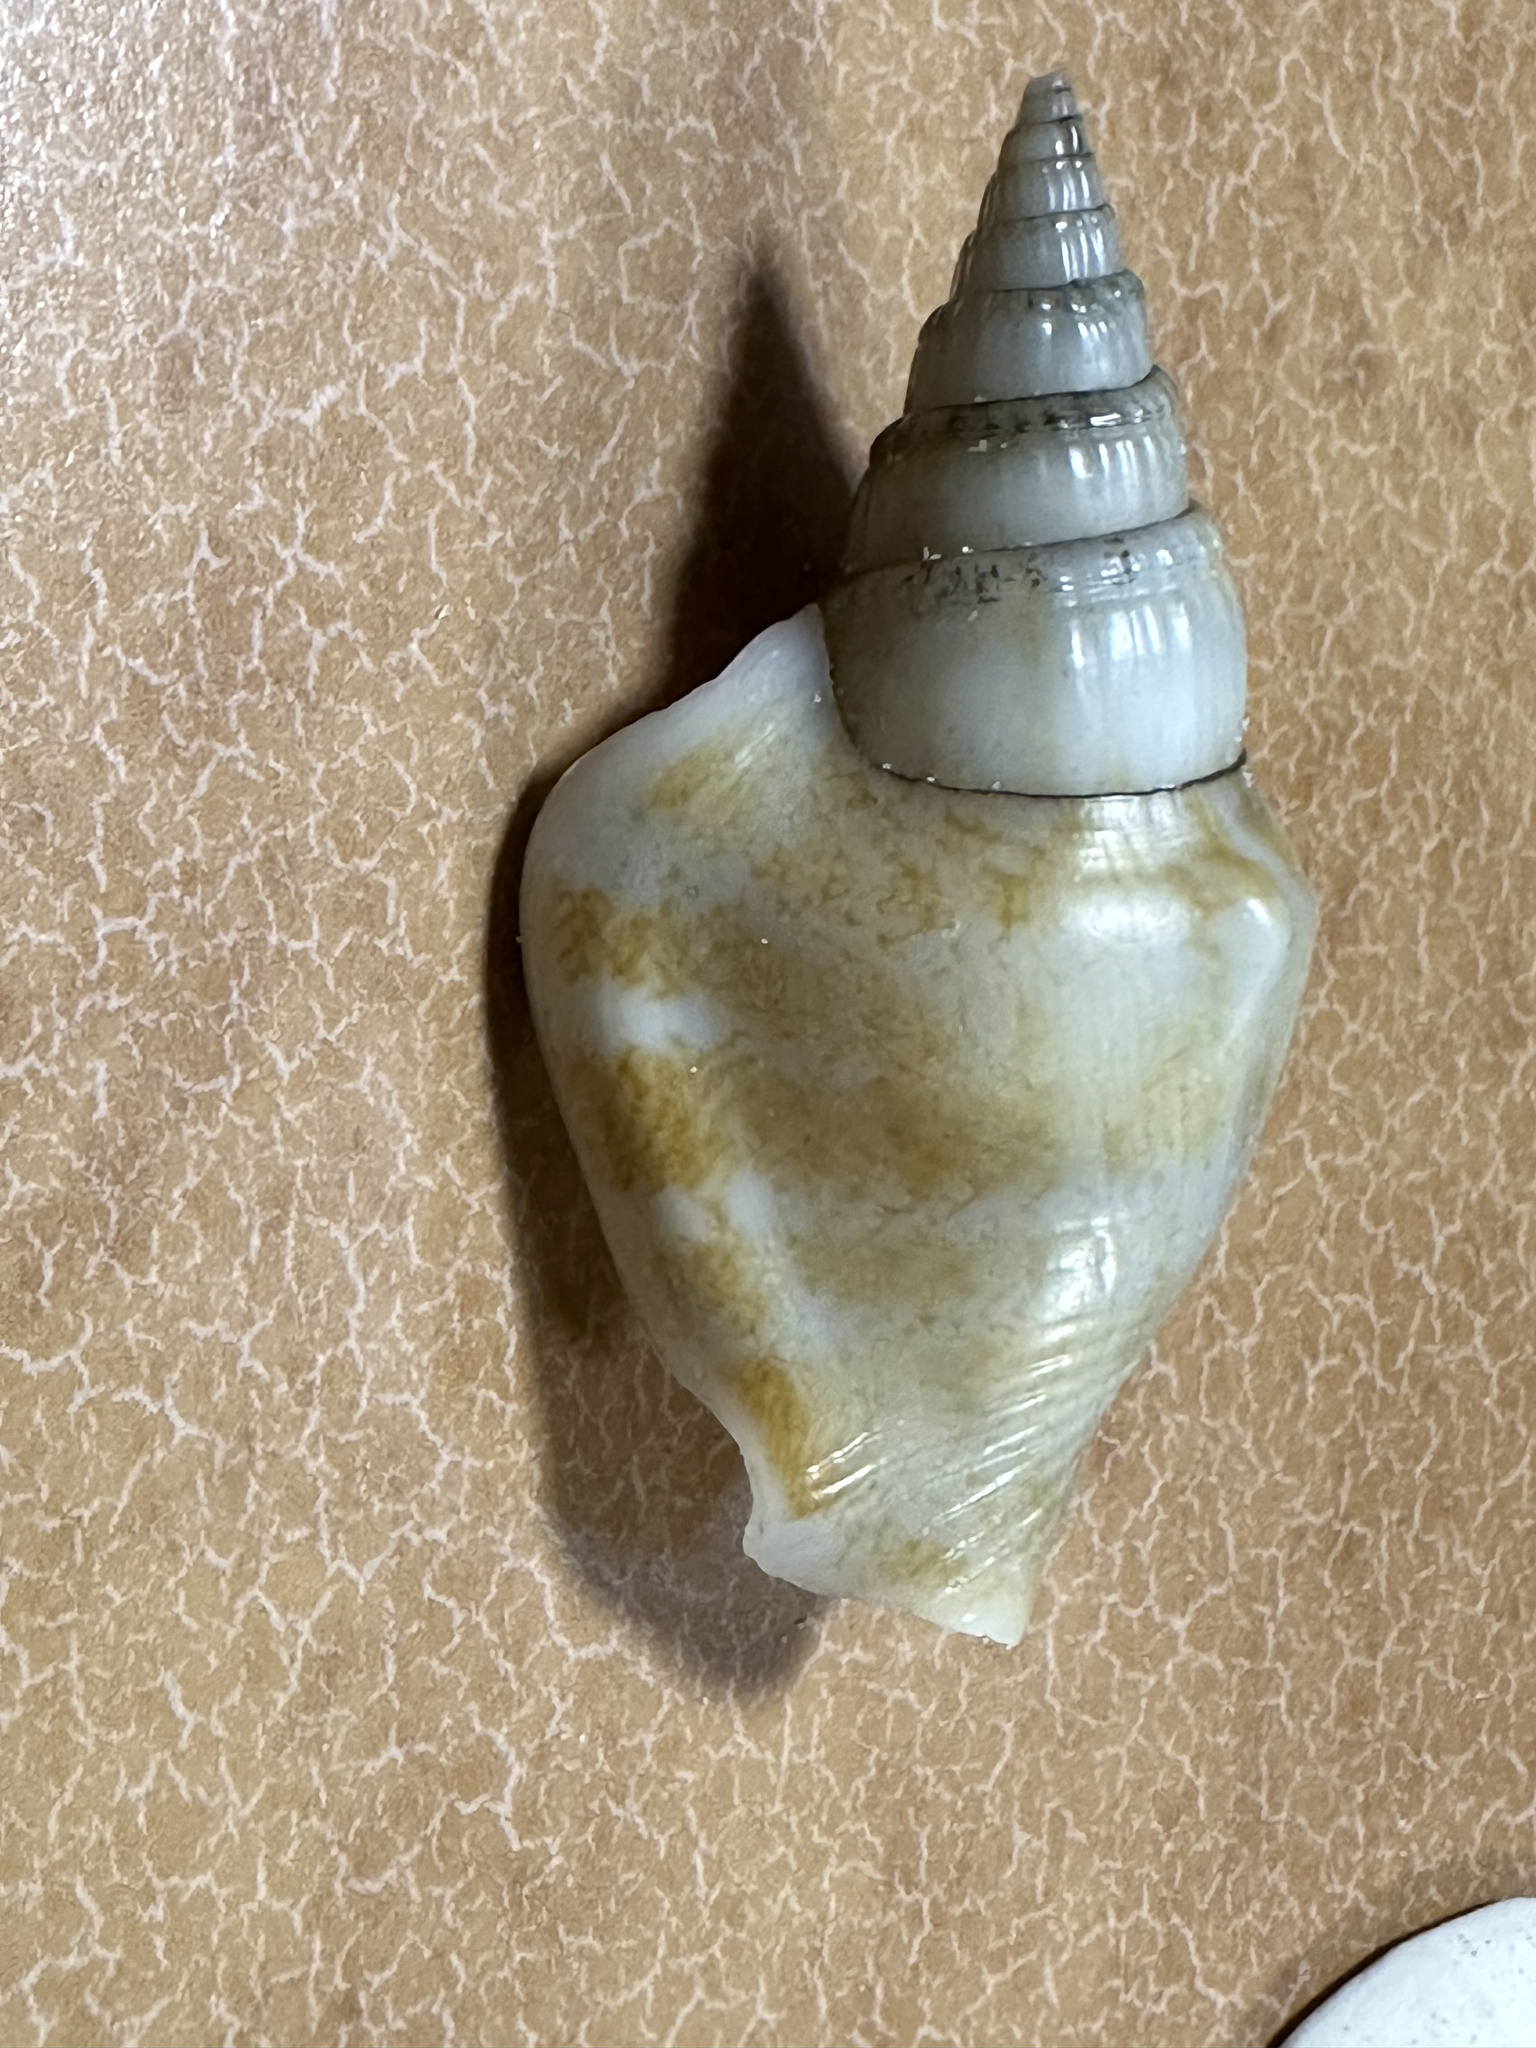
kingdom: Animalia
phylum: Mollusca
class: Gastropoda
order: Littorinimorpha
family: Strombidae
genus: Doxander
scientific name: Doxander campbellii
